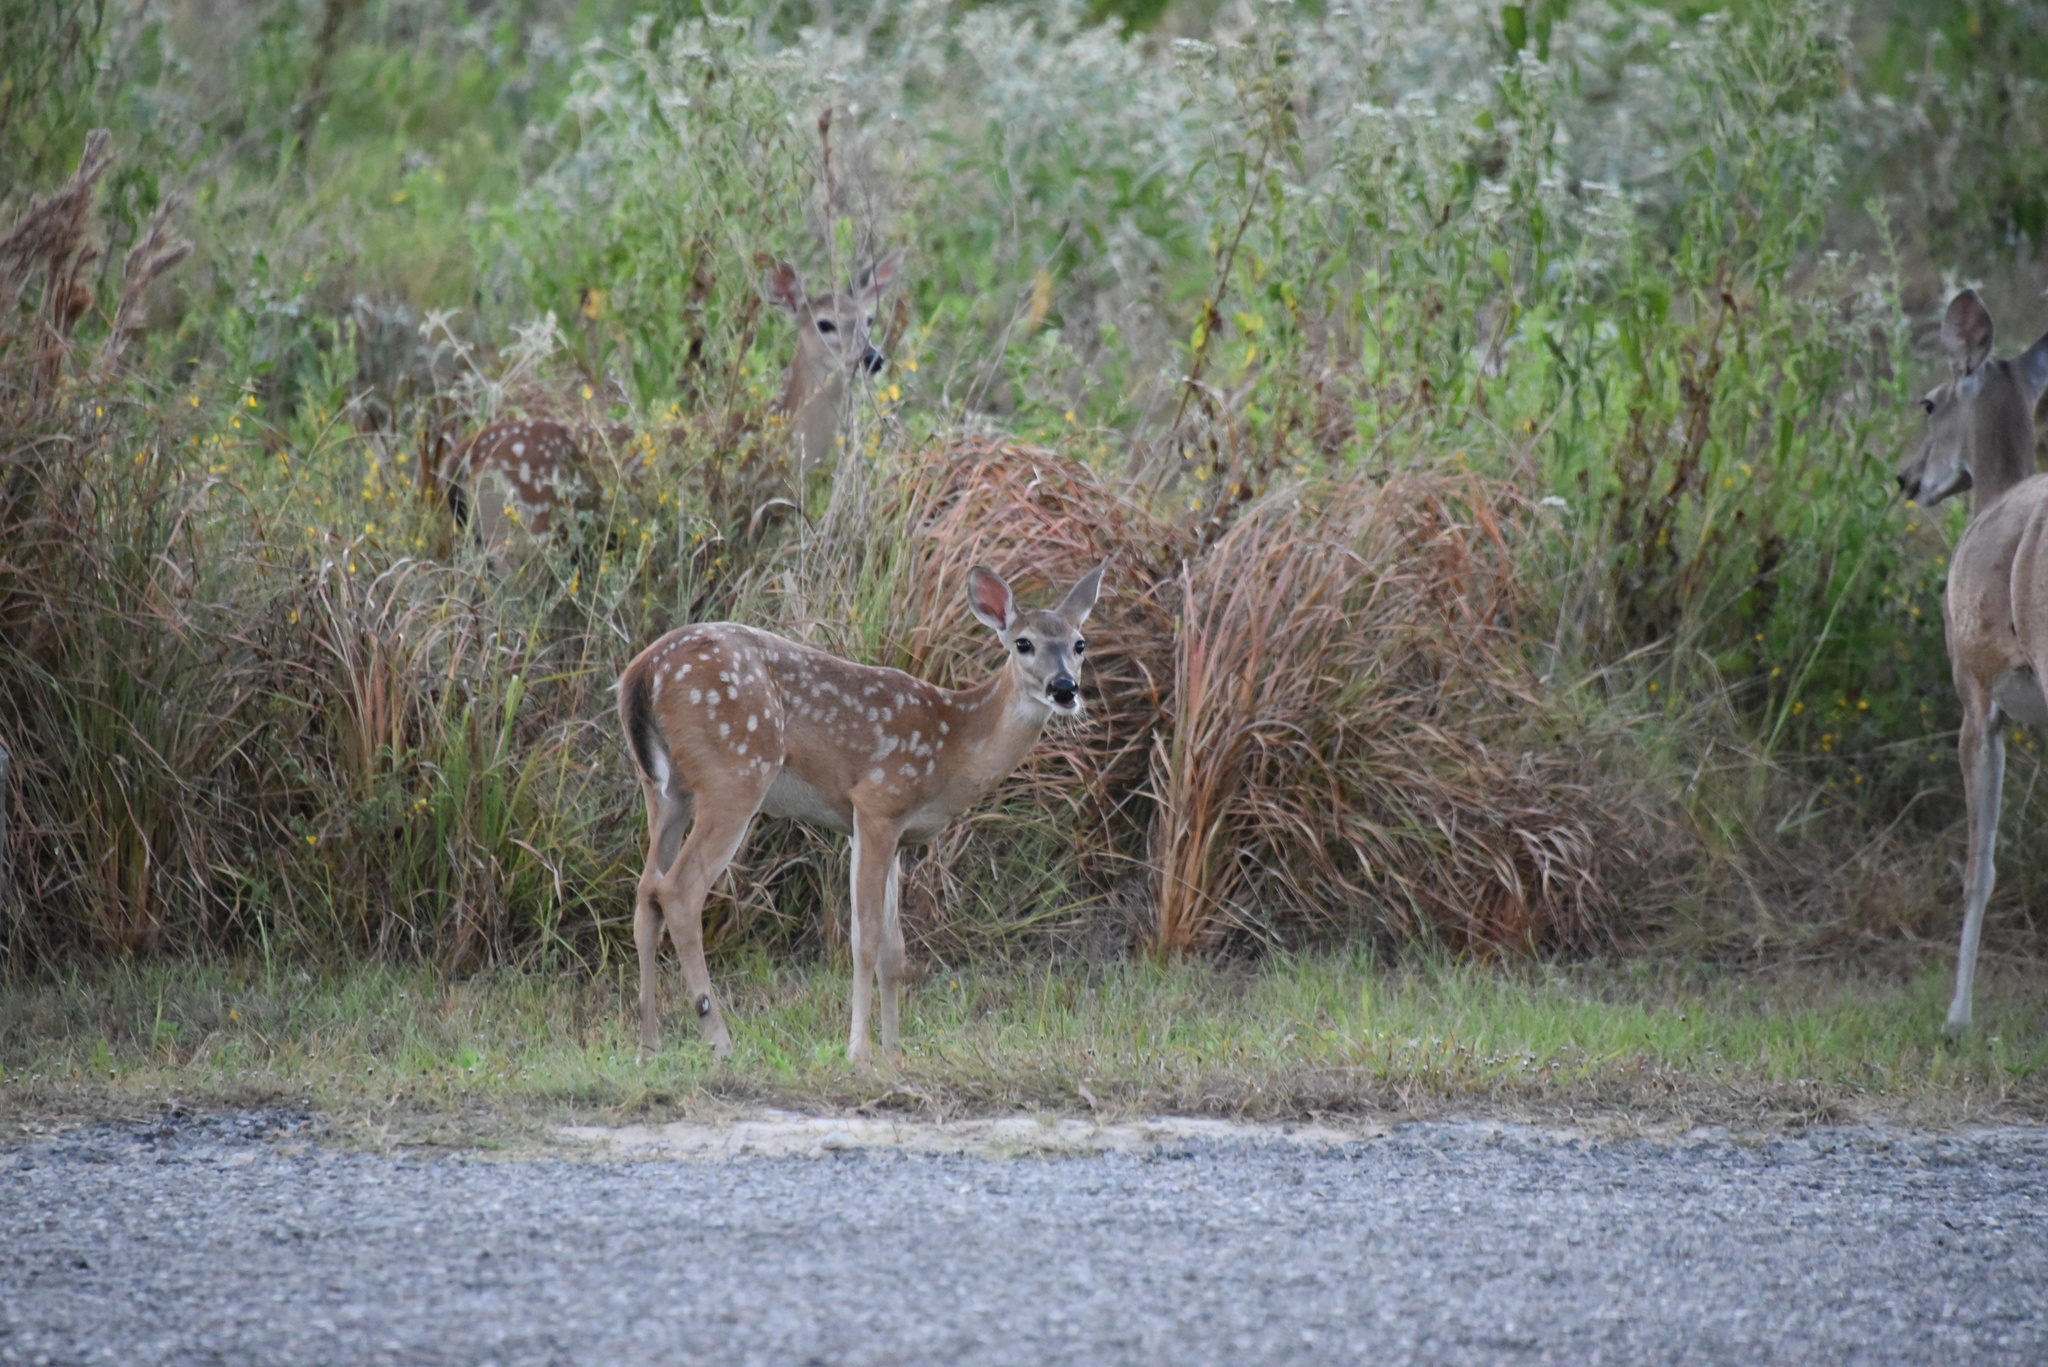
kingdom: Animalia
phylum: Chordata
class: Mammalia
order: Artiodactyla
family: Cervidae
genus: Odocoileus
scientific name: Odocoileus virginianus
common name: White-tailed deer
